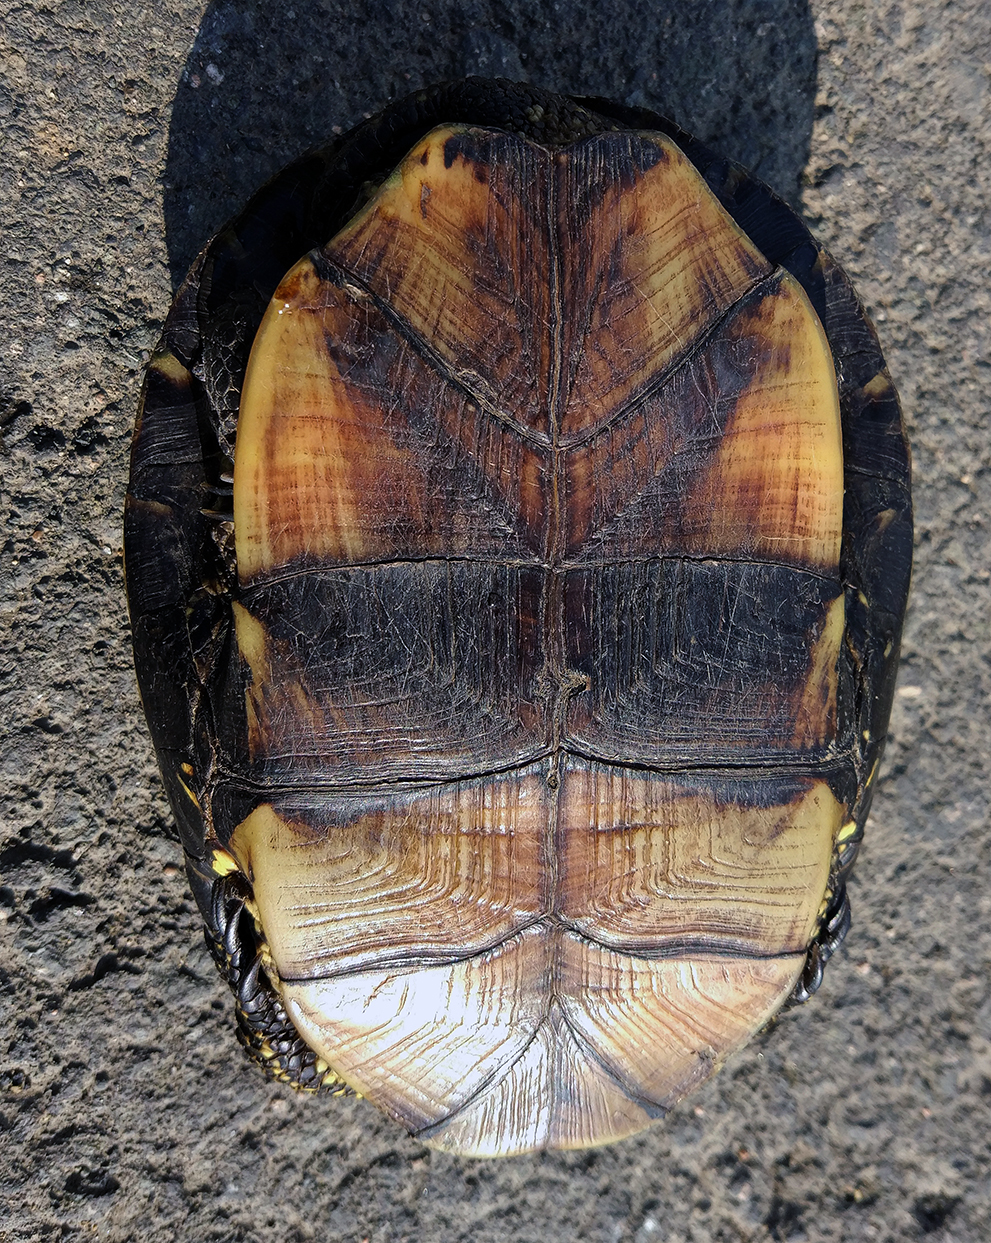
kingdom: Animalia
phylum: Chordata
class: Testudines
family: Emydidae
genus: Emys
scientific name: Emys orbicularis
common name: European pond turtle
